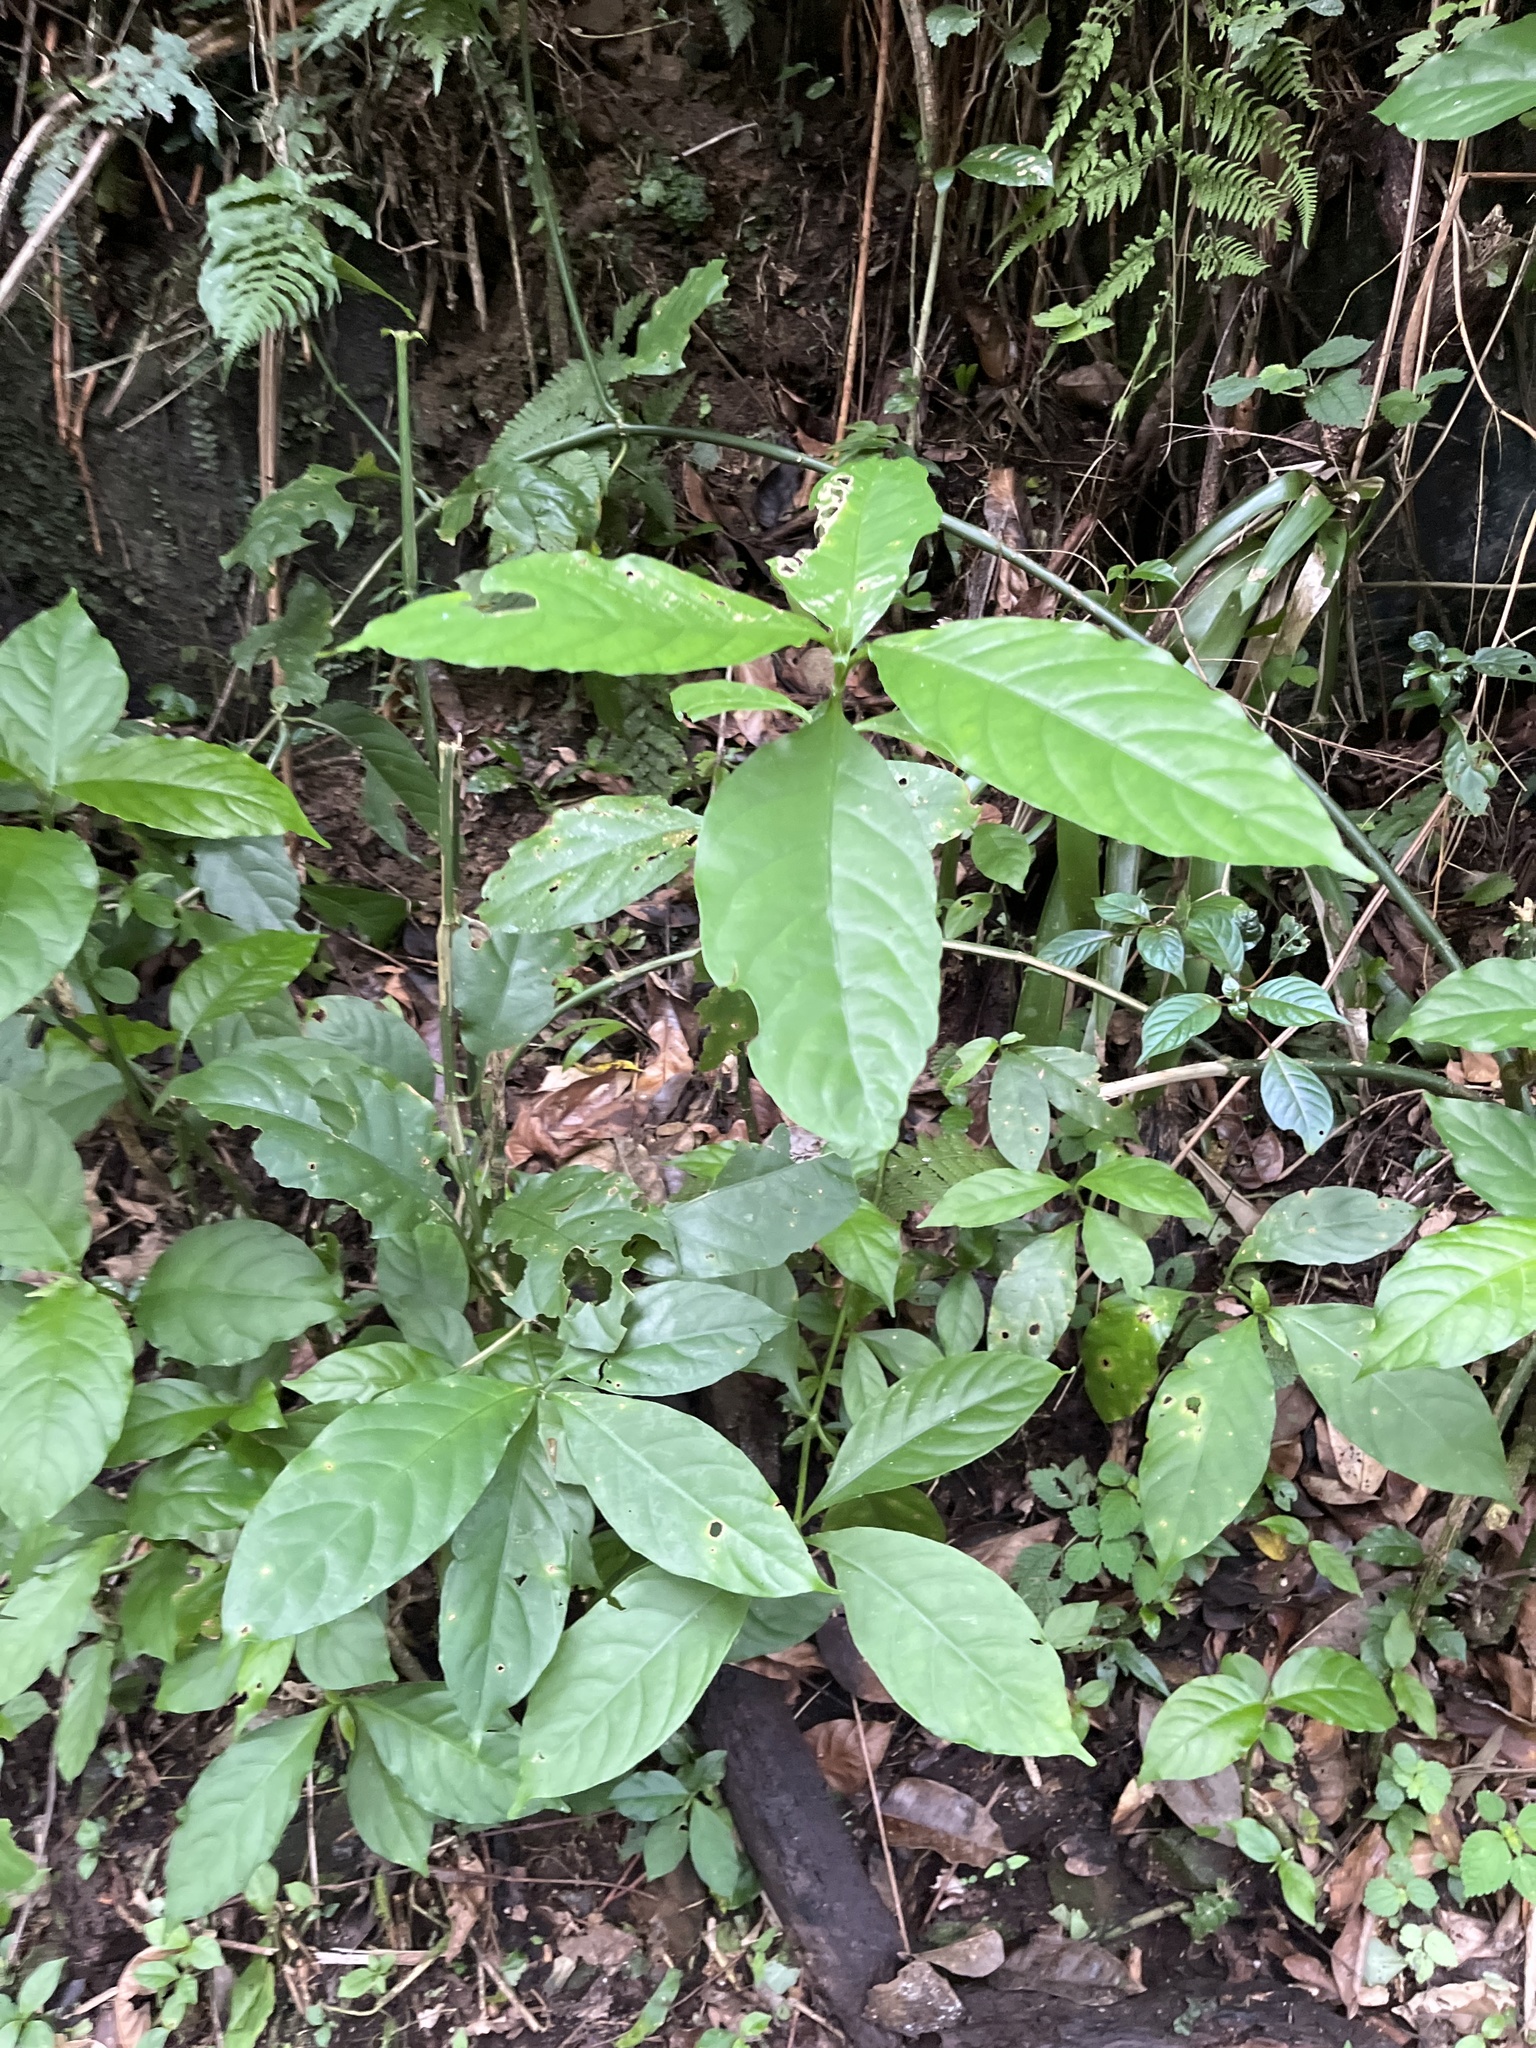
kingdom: Plantae
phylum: Tracheophyta
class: Magnoliopsida
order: Lamiales
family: Acanthaceae
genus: Odontonema
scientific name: Odontonema cuspidatum
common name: Mottled toothedthread
